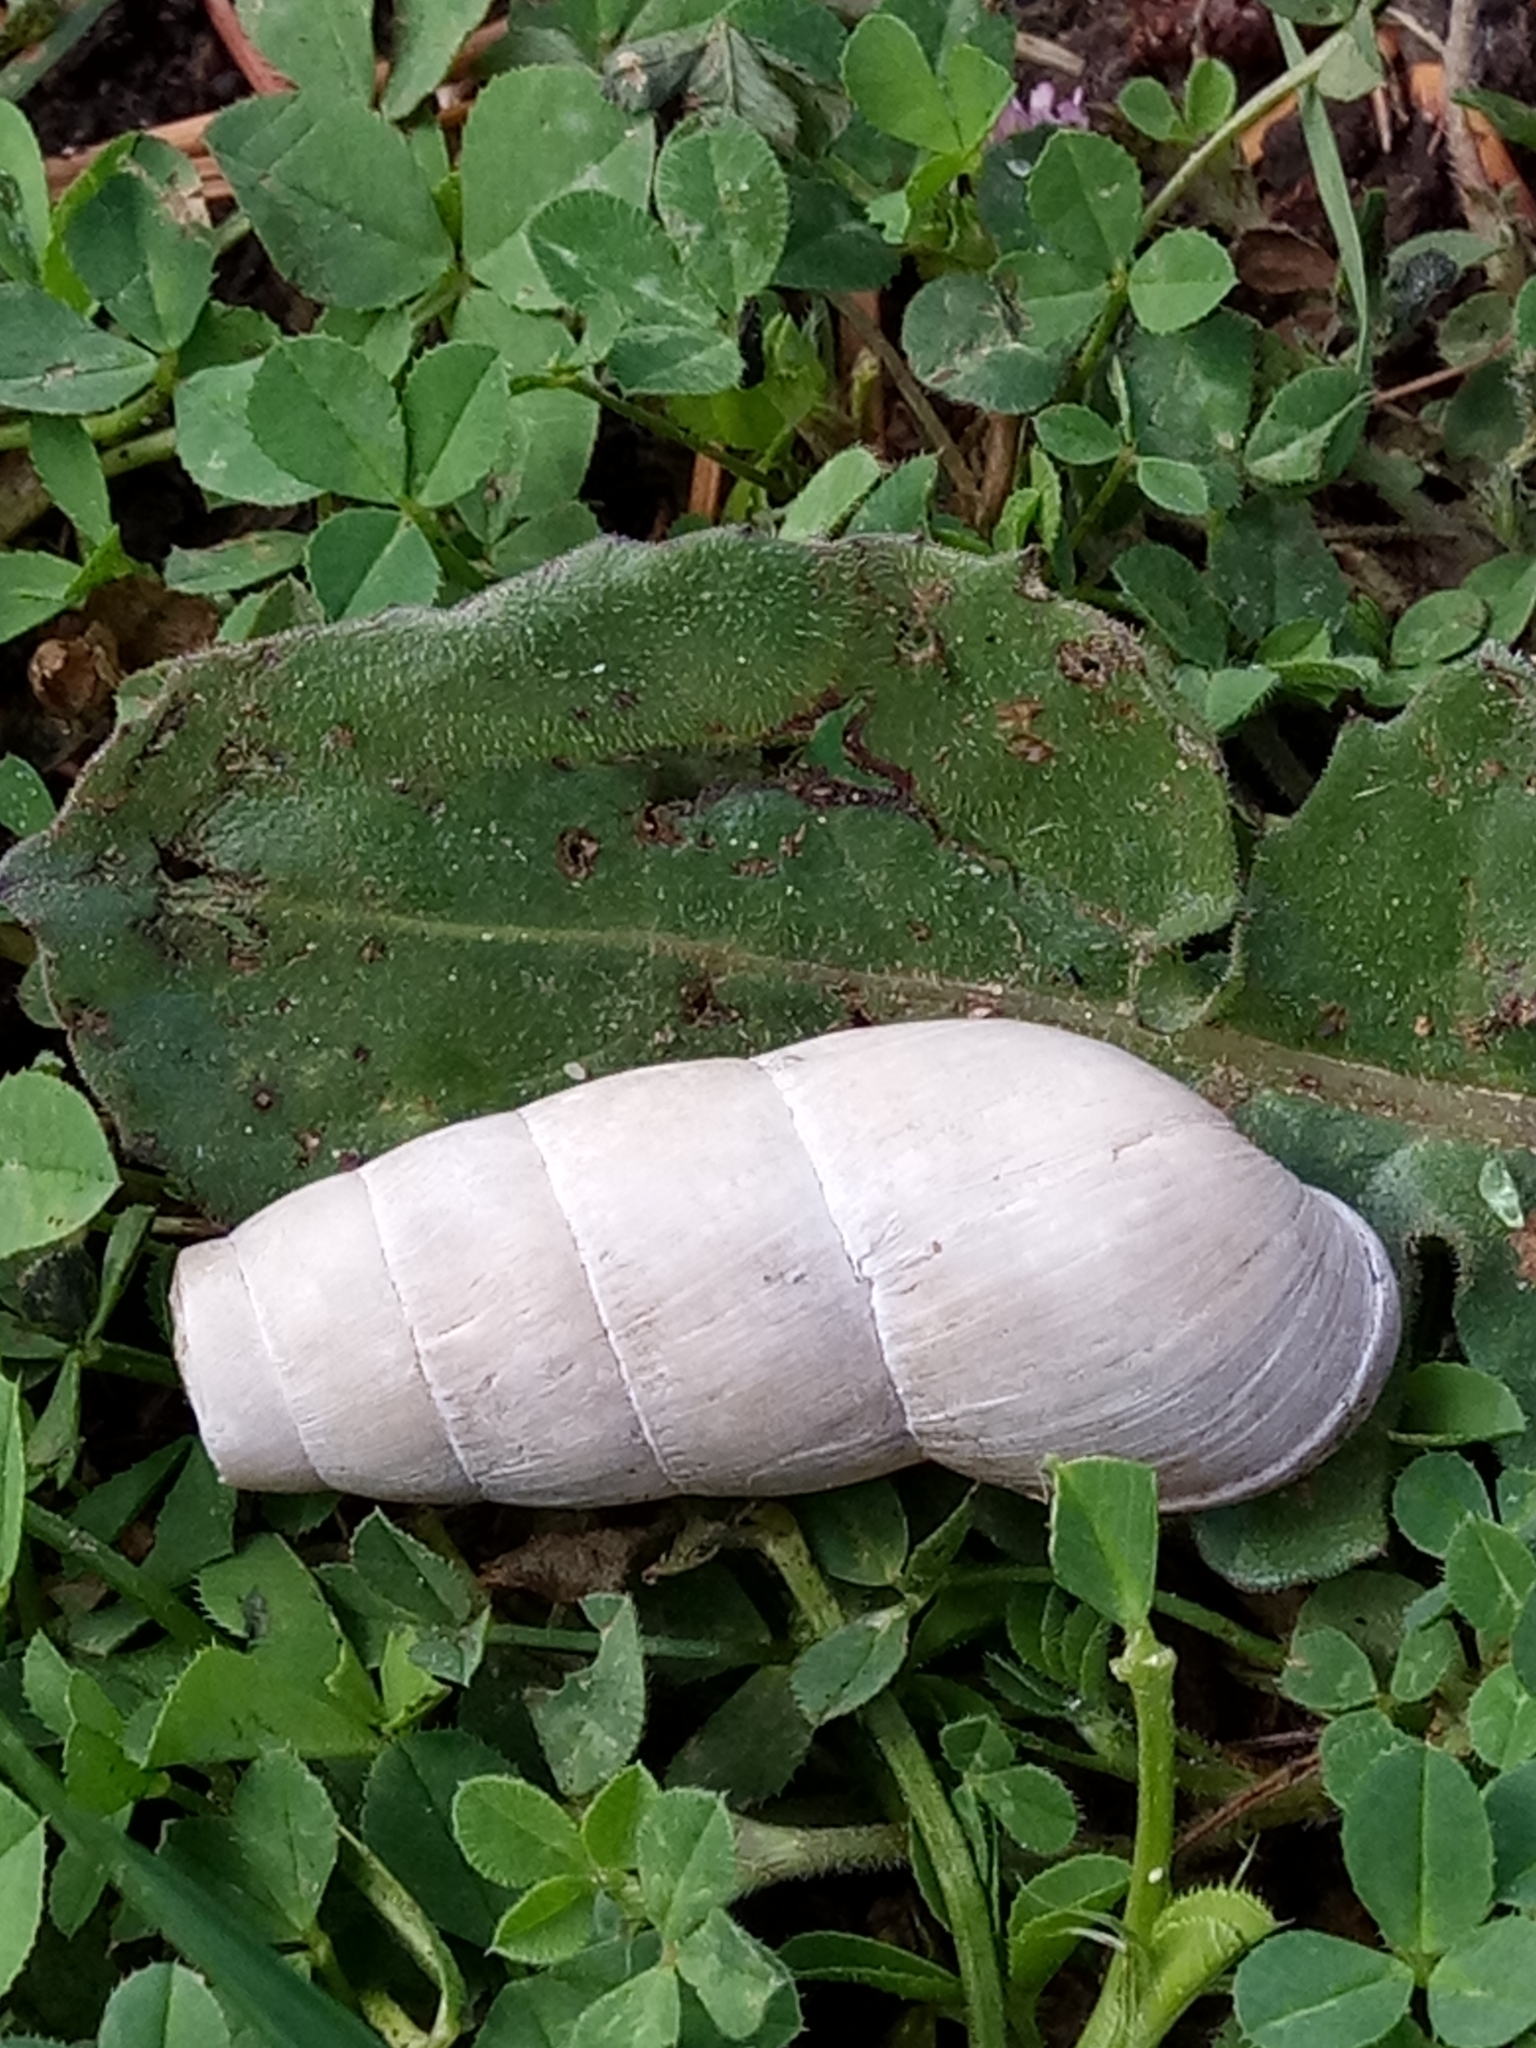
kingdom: Animalia
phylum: Mollusca
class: Gastropoda
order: Stylommatophora
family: Achatinidae
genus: Rumina
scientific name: Rumina decollata
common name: Decollate snail
